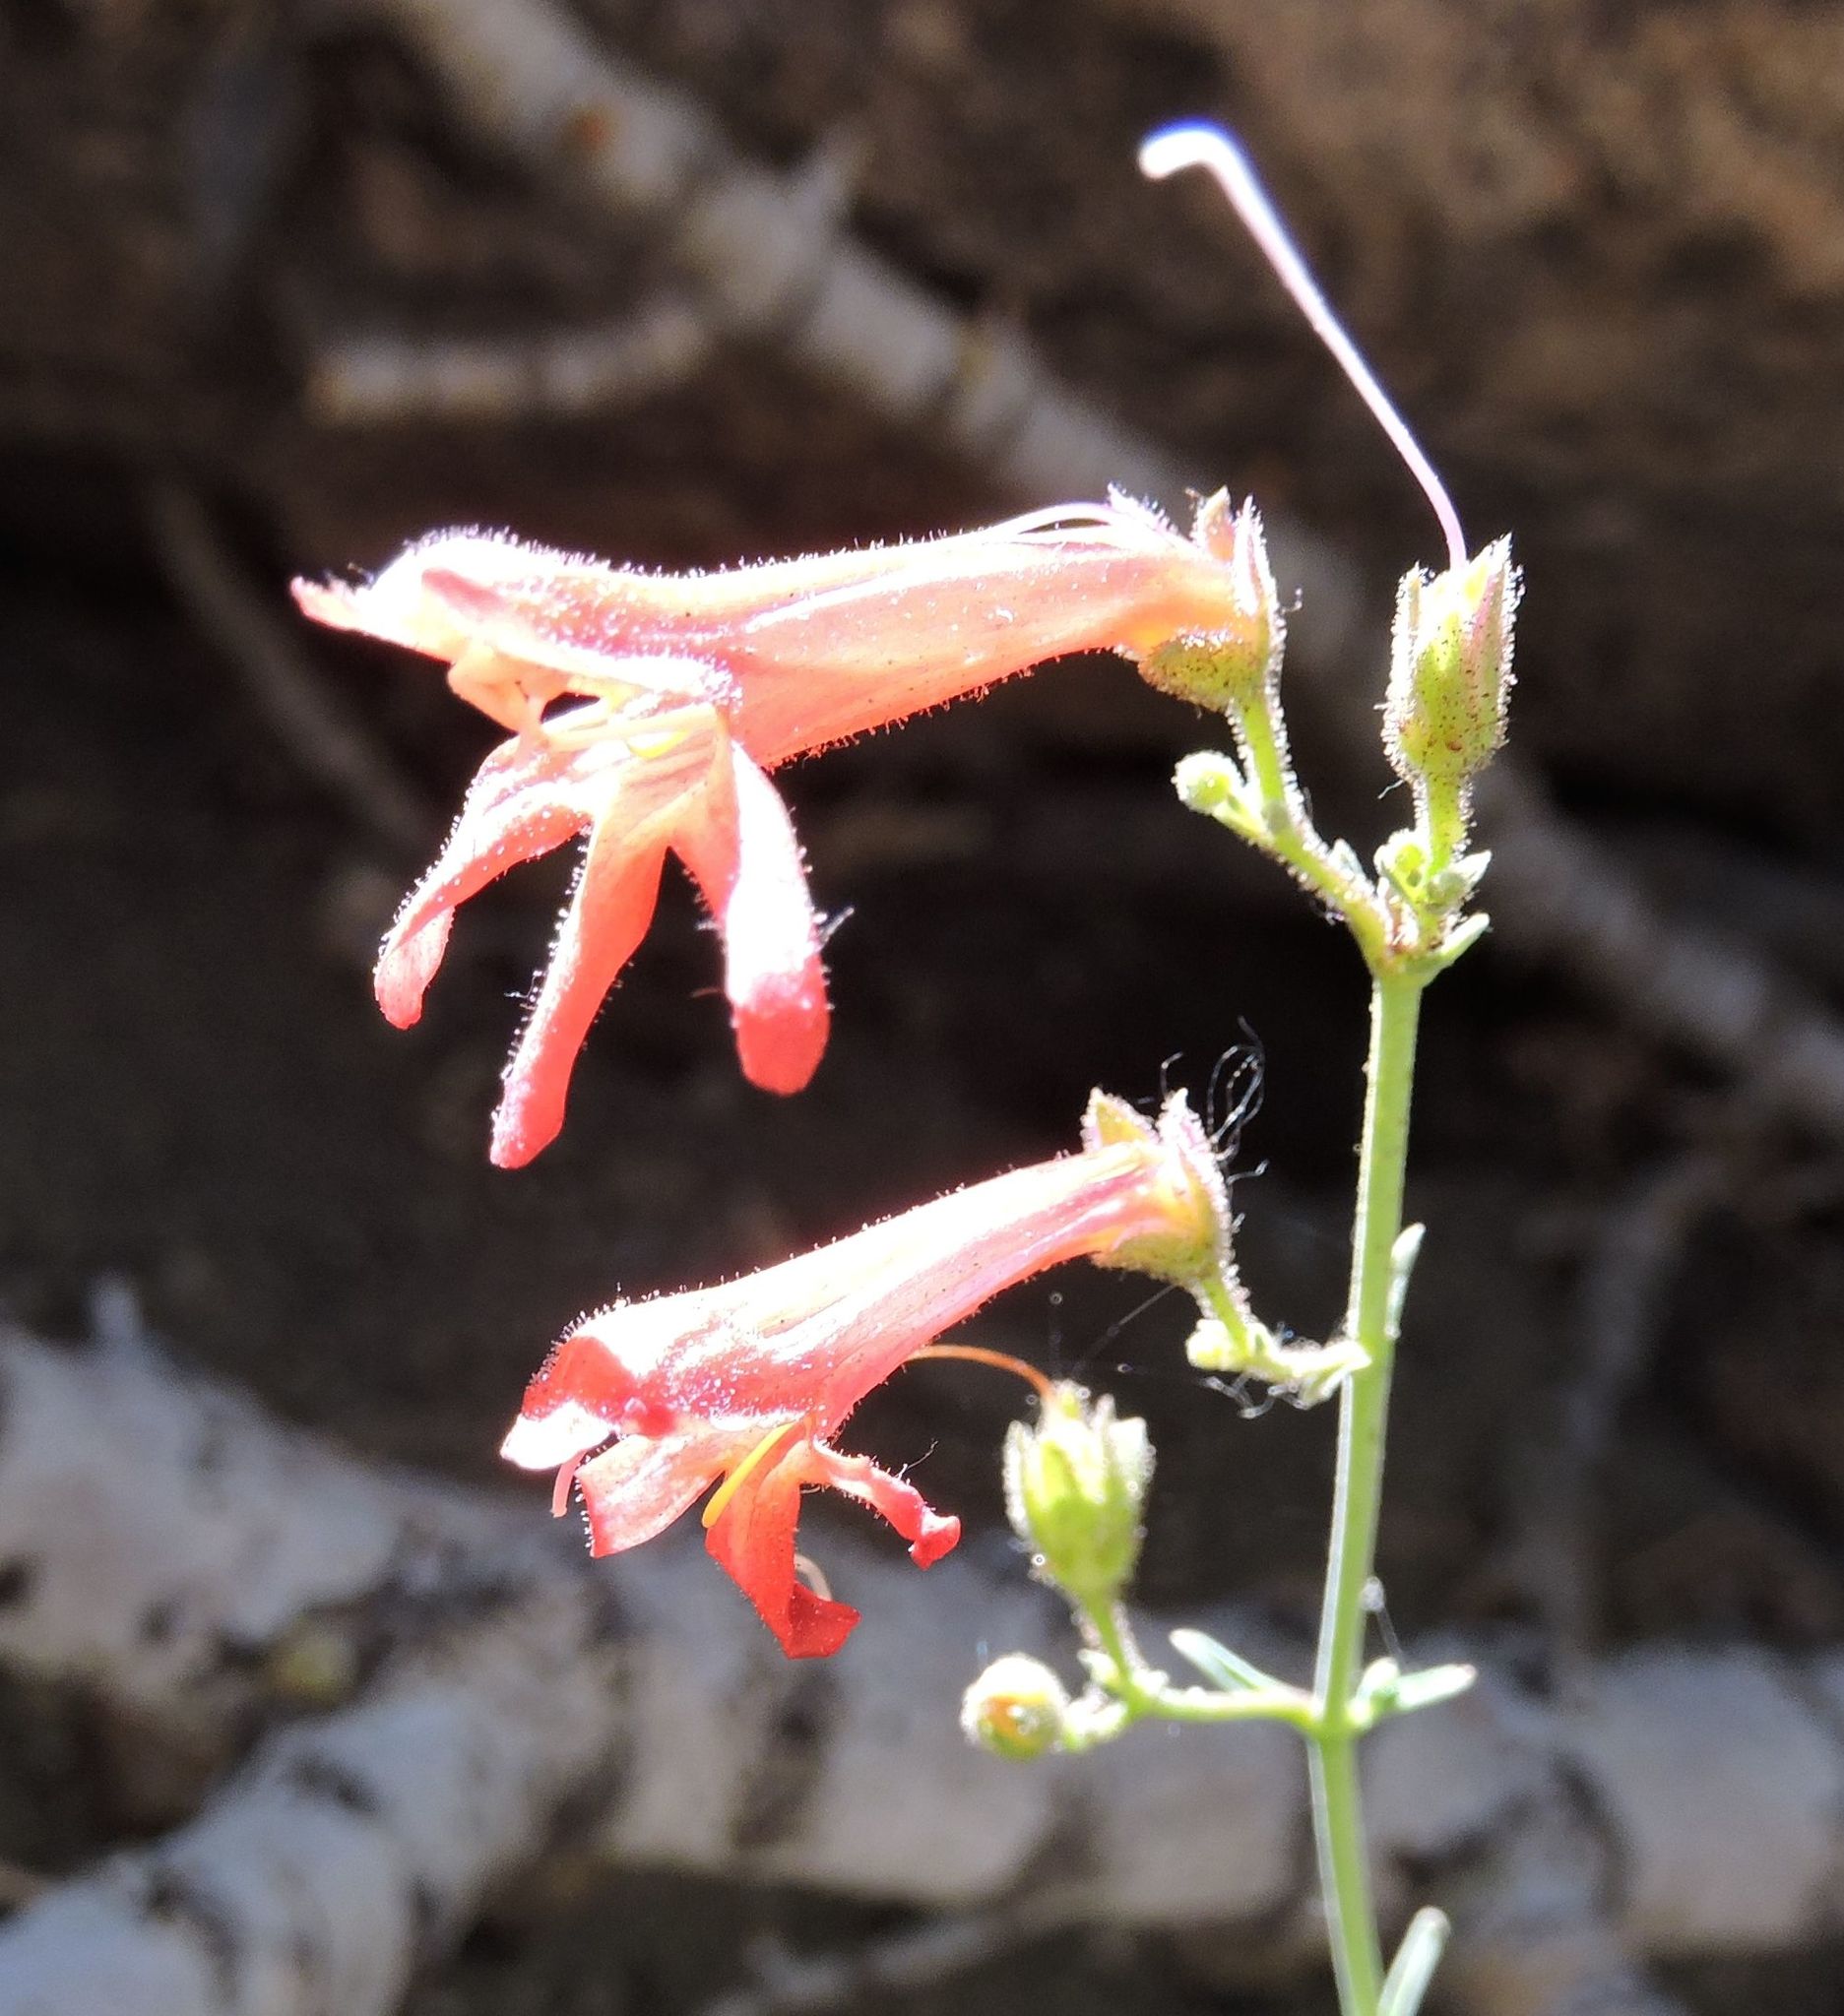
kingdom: Plantae
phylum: Tracheophyta
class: Magnoliopsida
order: Lamiales
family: Plantaginaceae
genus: Penstemon
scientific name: Penstemon rostriflorus
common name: Bridges's penstemon
